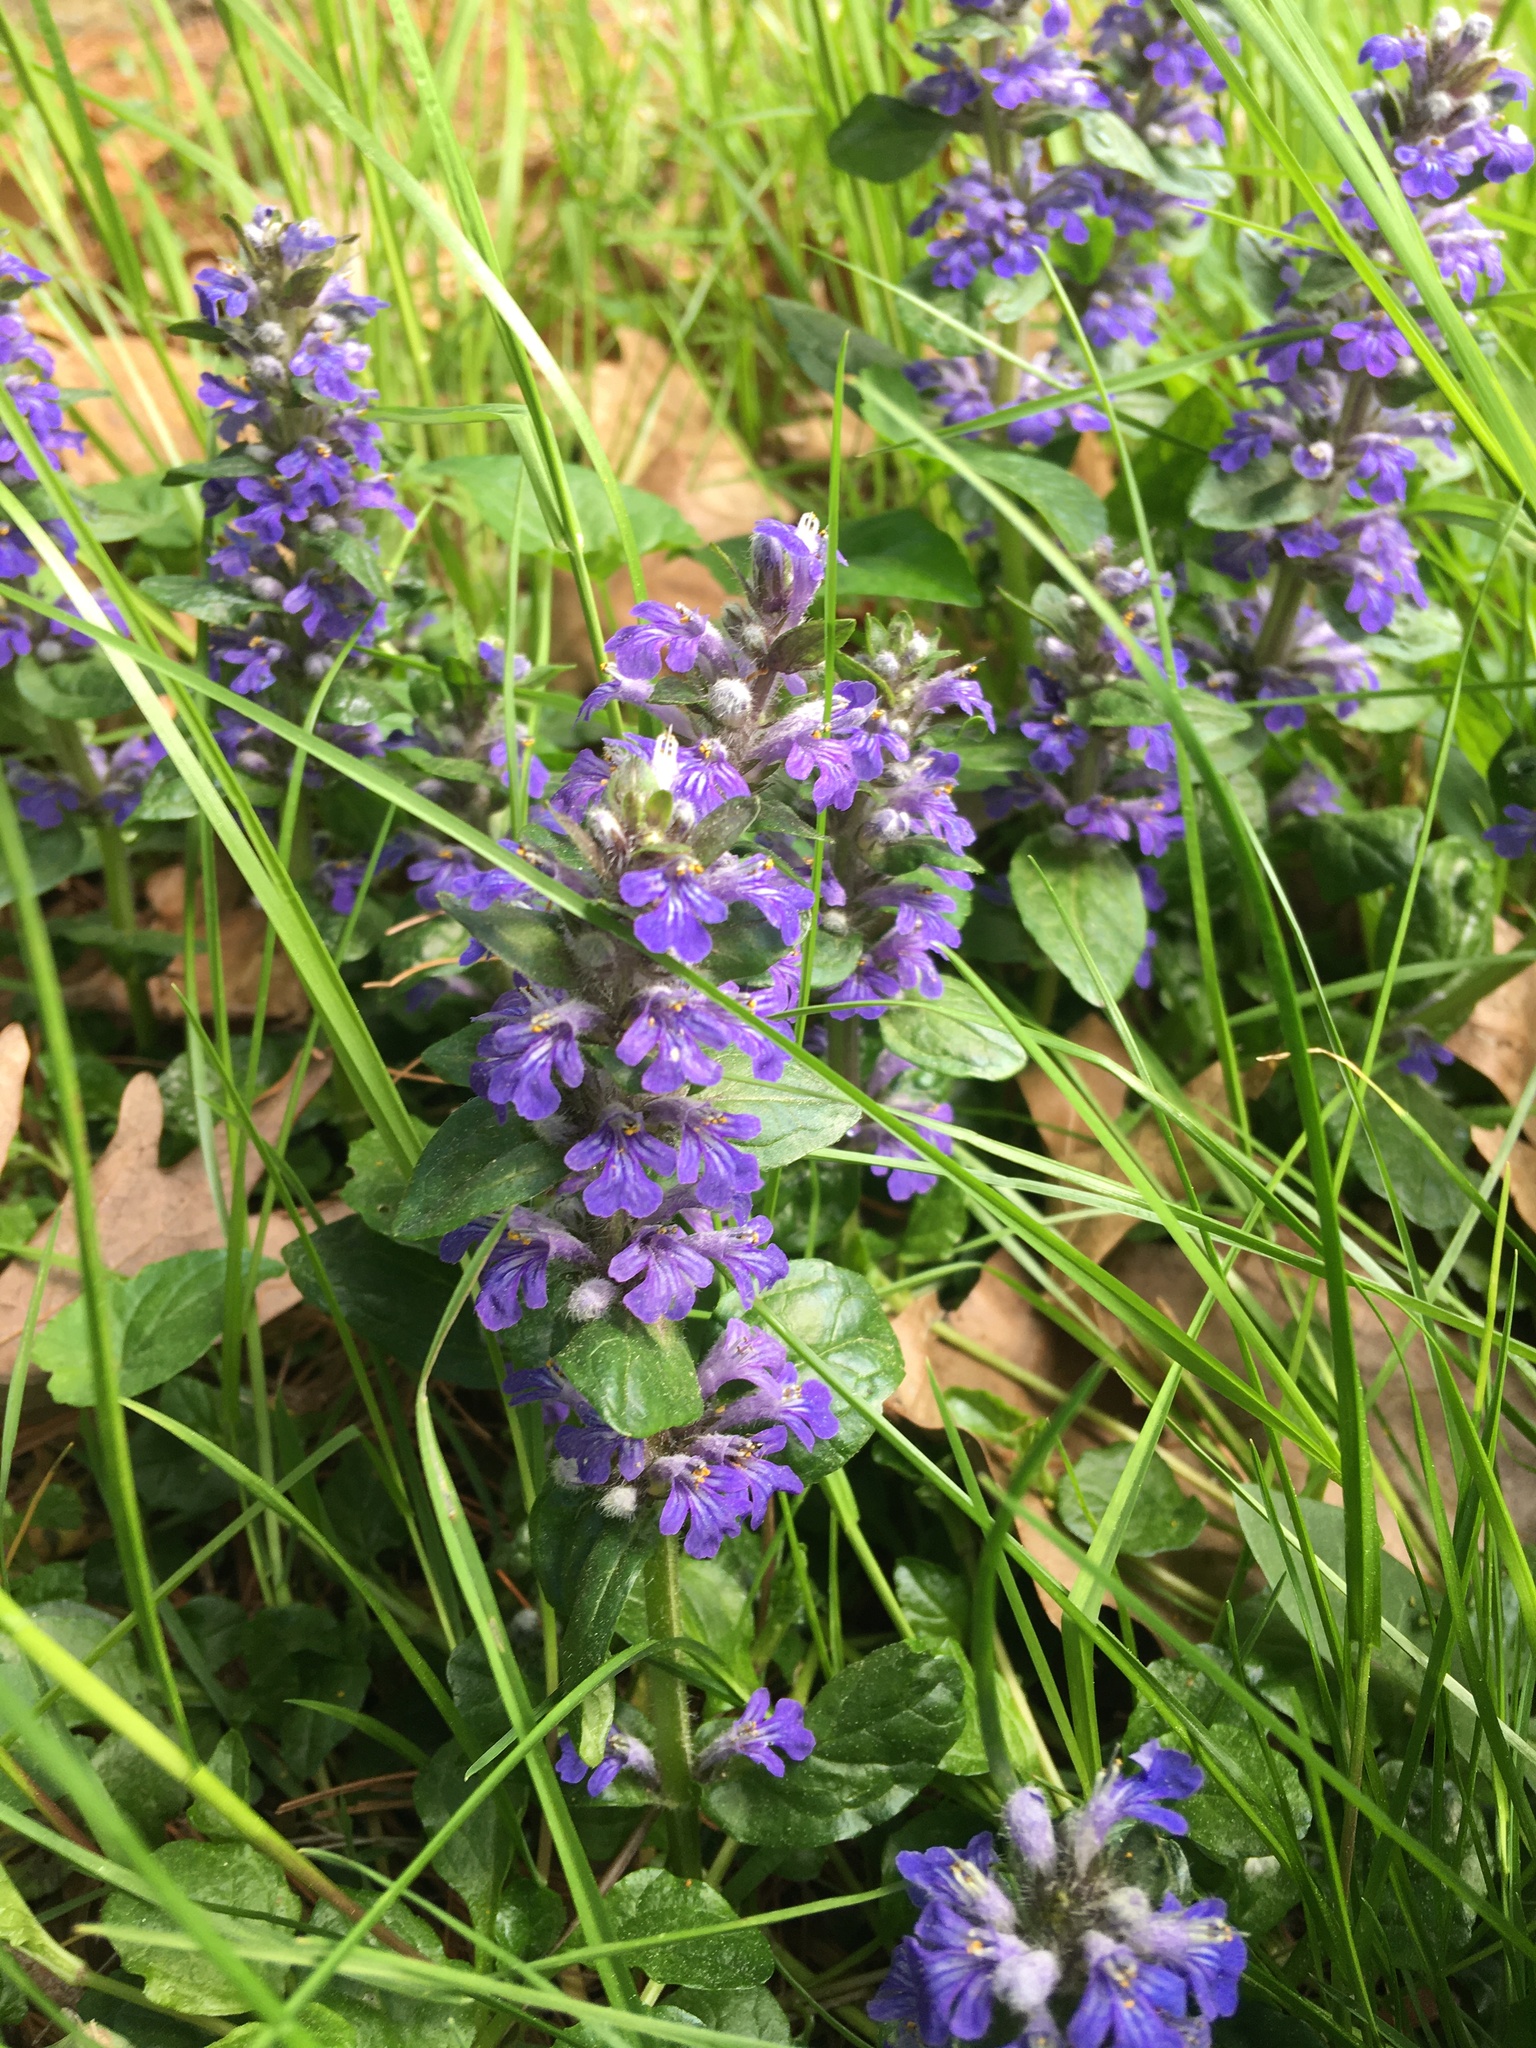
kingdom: Plantae
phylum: Tracheophyta
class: Magnoliopsida
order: Lamiales
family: Lamiaceae
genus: Ajuga
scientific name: Ajuga reptans
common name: Bugle
